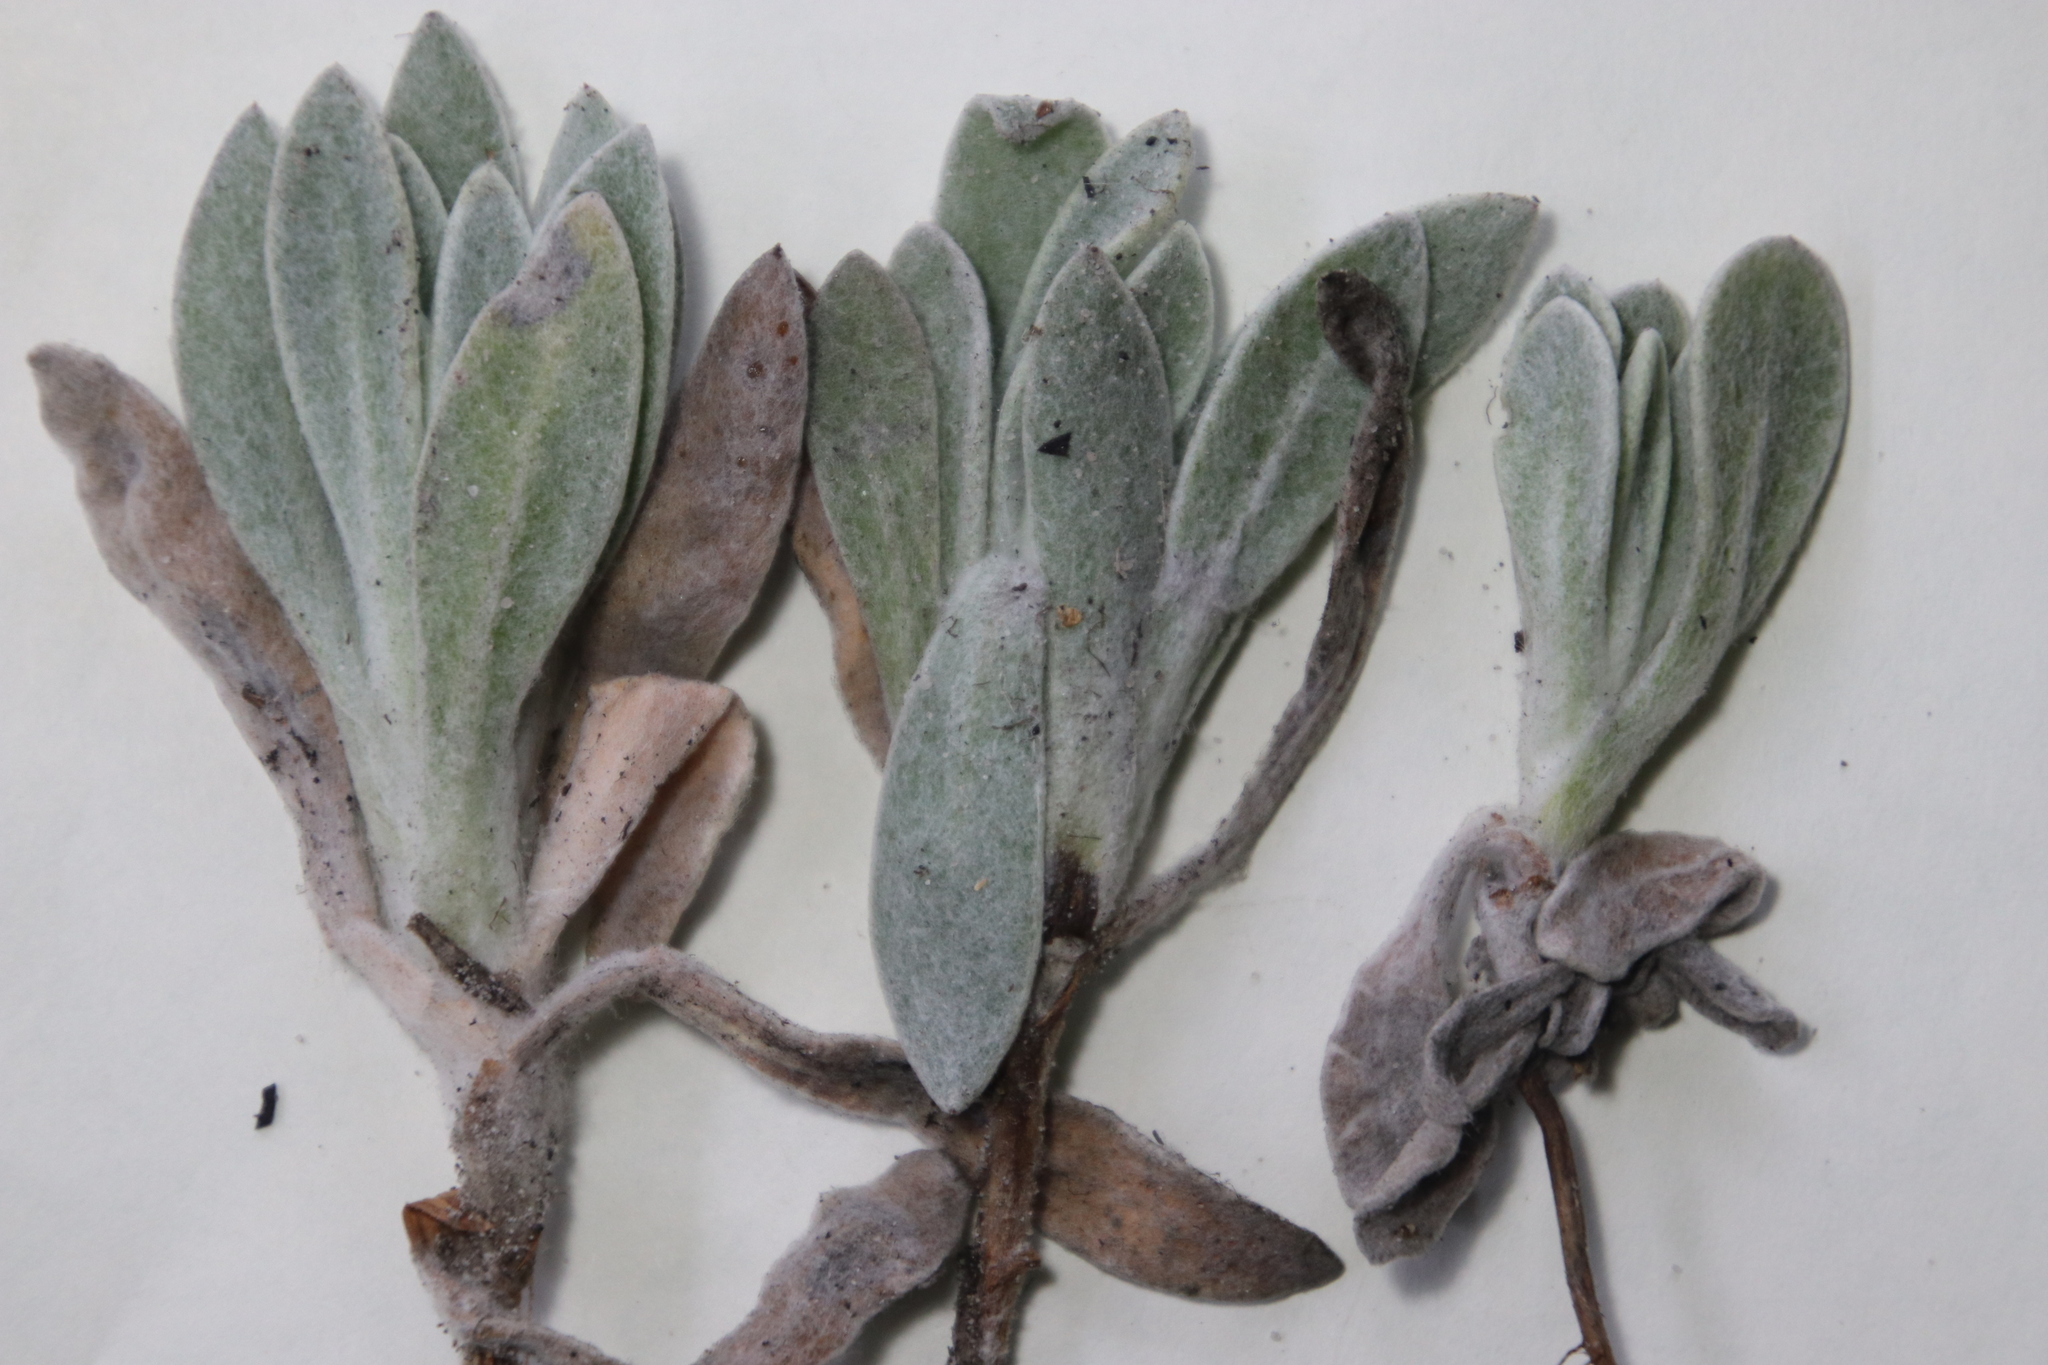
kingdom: Plantae
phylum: Tracheophyta
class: Magnoliopsida
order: Asterales
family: Asteraceae
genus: Syncarpha
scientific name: Syncarpha vestita
